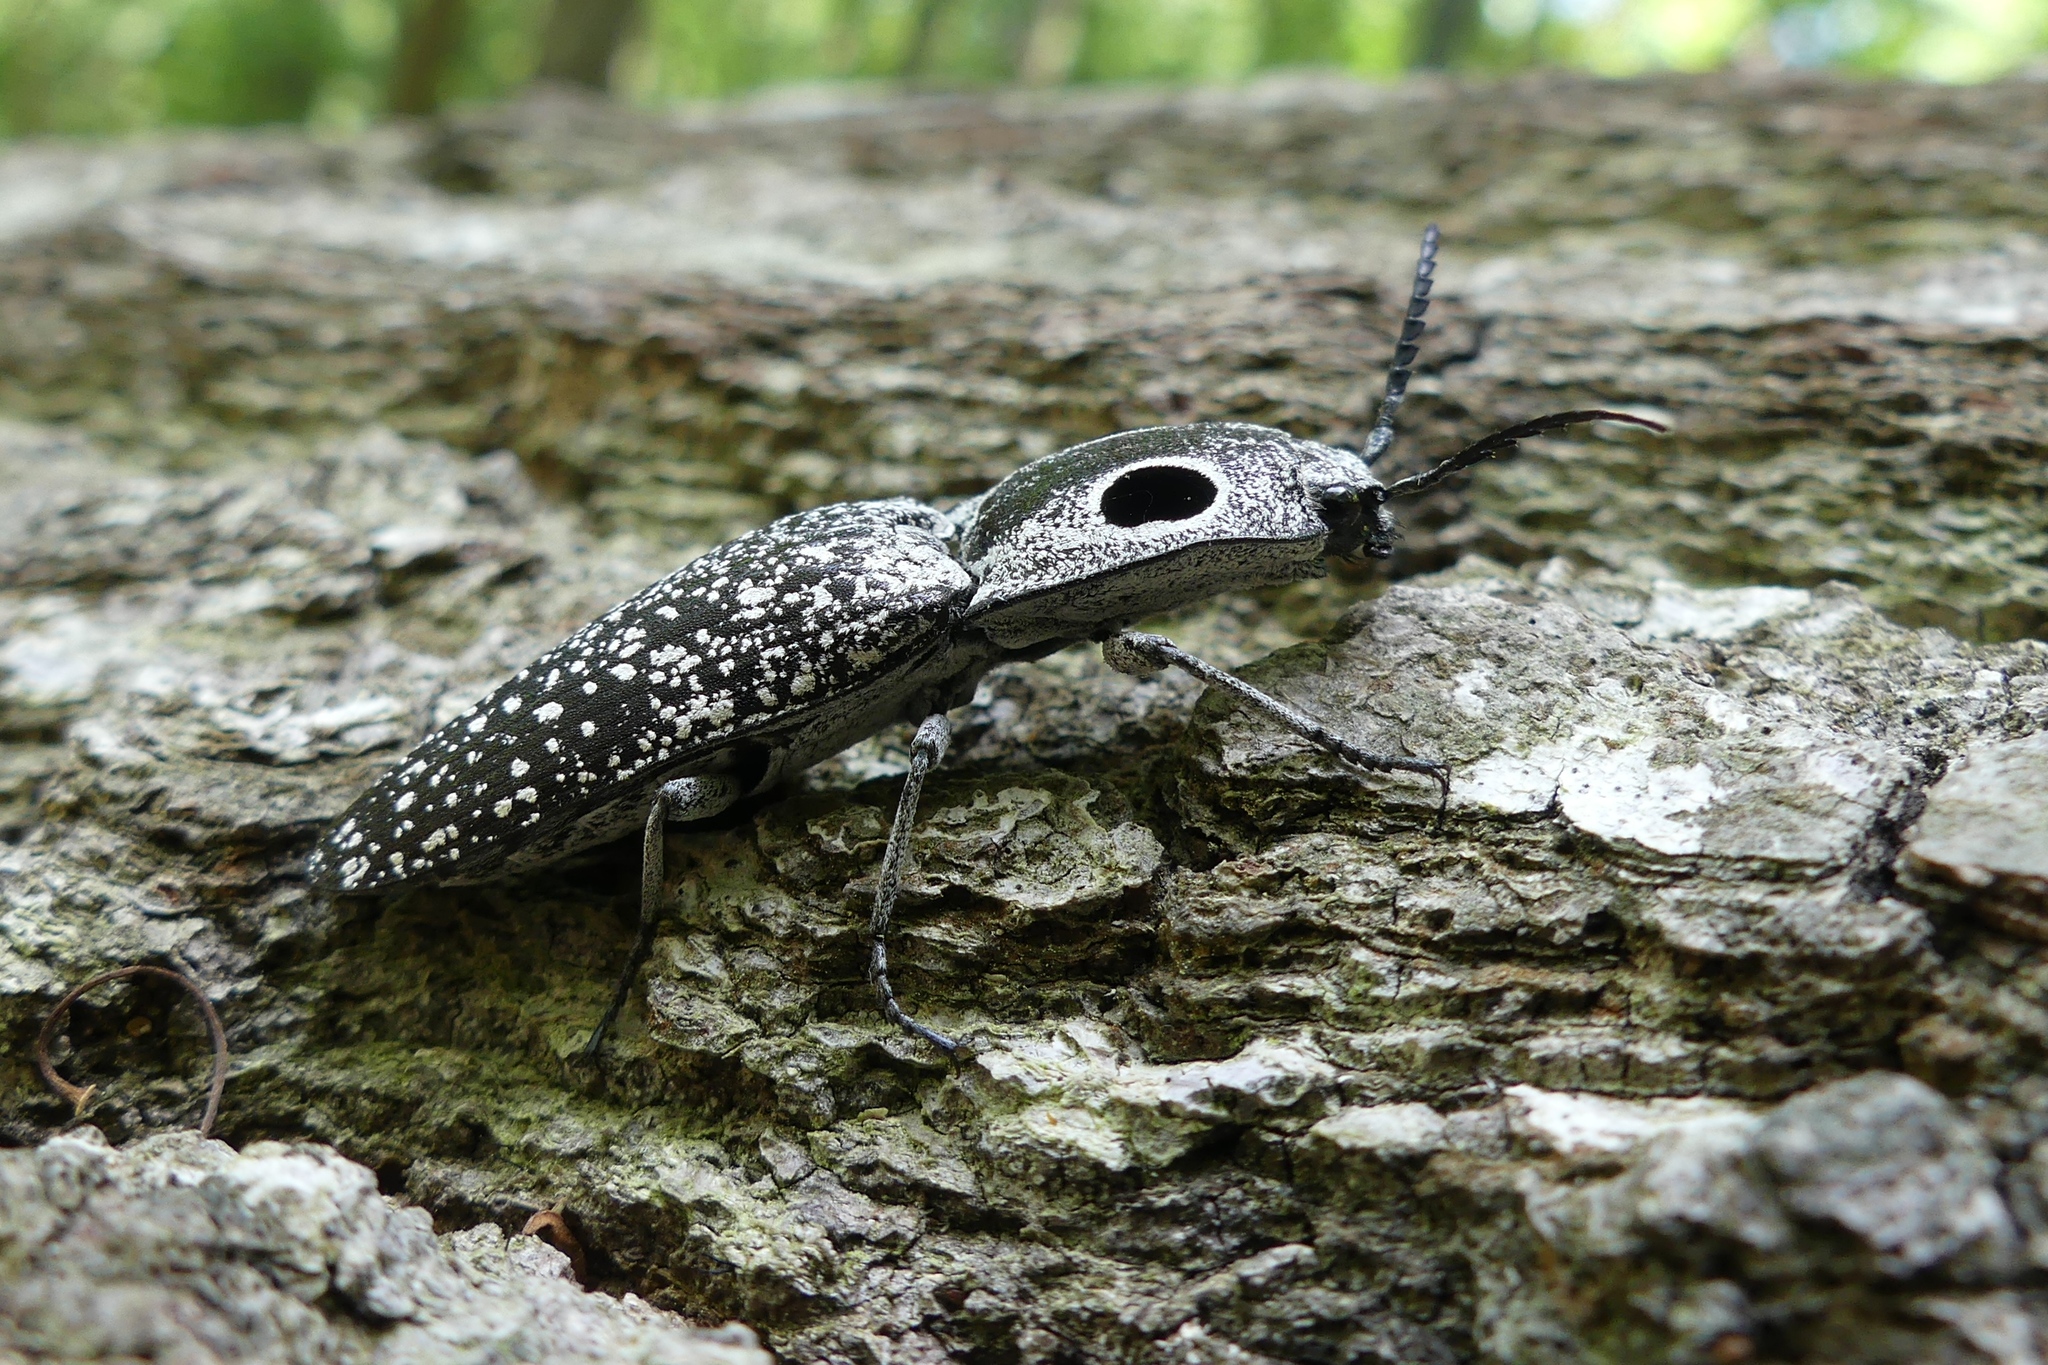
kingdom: Animalia
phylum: Arthropoda
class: Insecta
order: Coleoptera
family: Elateridae
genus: Alaus
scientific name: Alaus oculatus
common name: Eastern eyed click beetle
